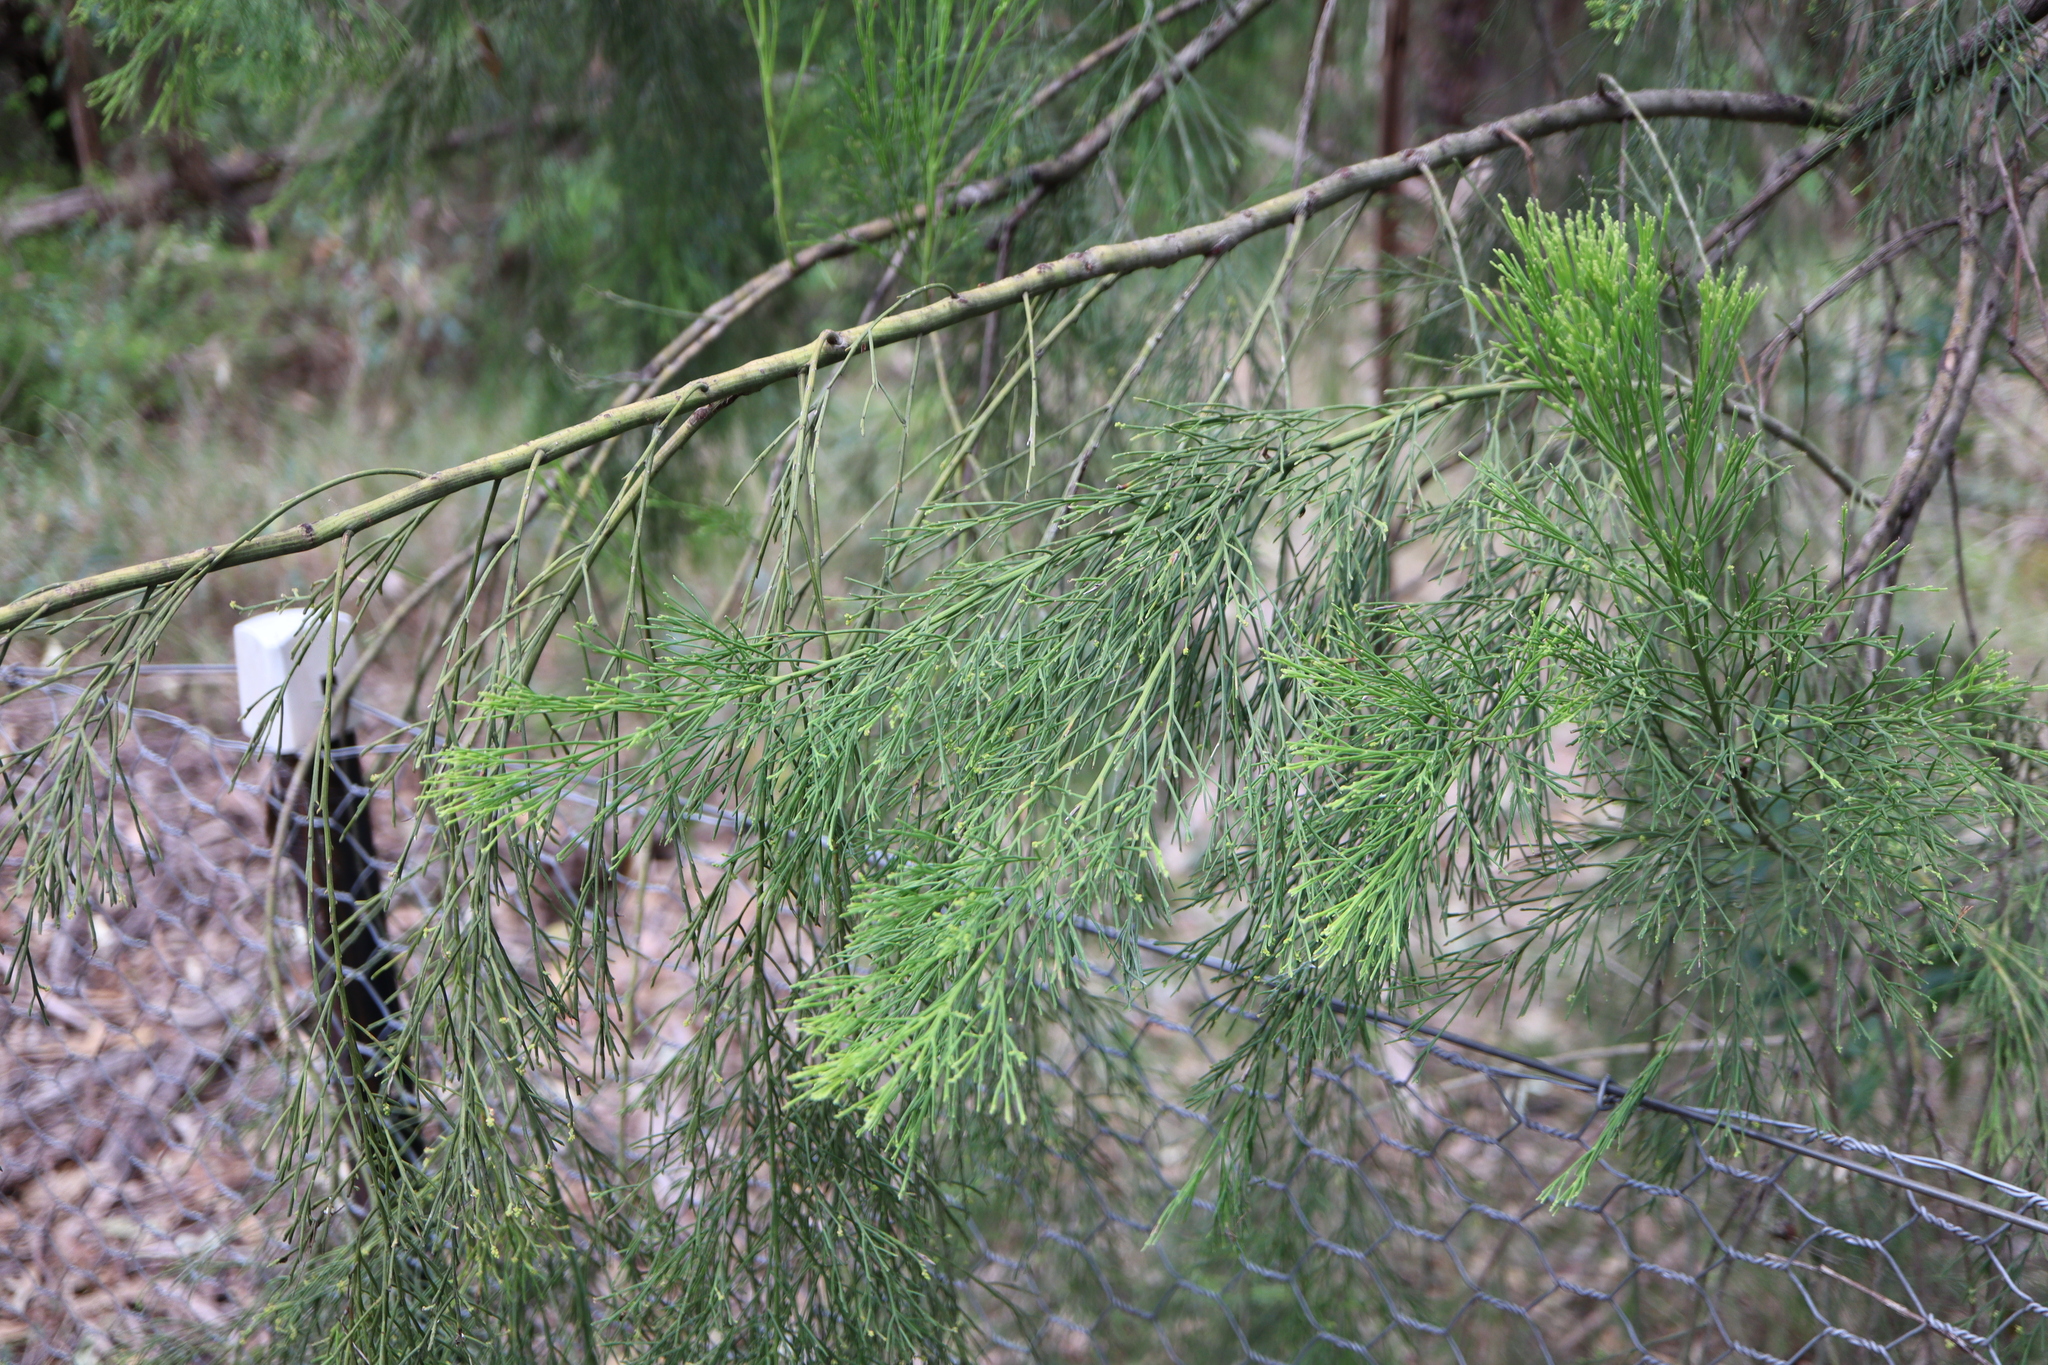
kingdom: Plantae
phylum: Tracheophyta
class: Magnoliopsida
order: Santalales
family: Santalaceae
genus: Exocarpos
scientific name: Exocarpos cupressiformis
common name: Cherry ballart
